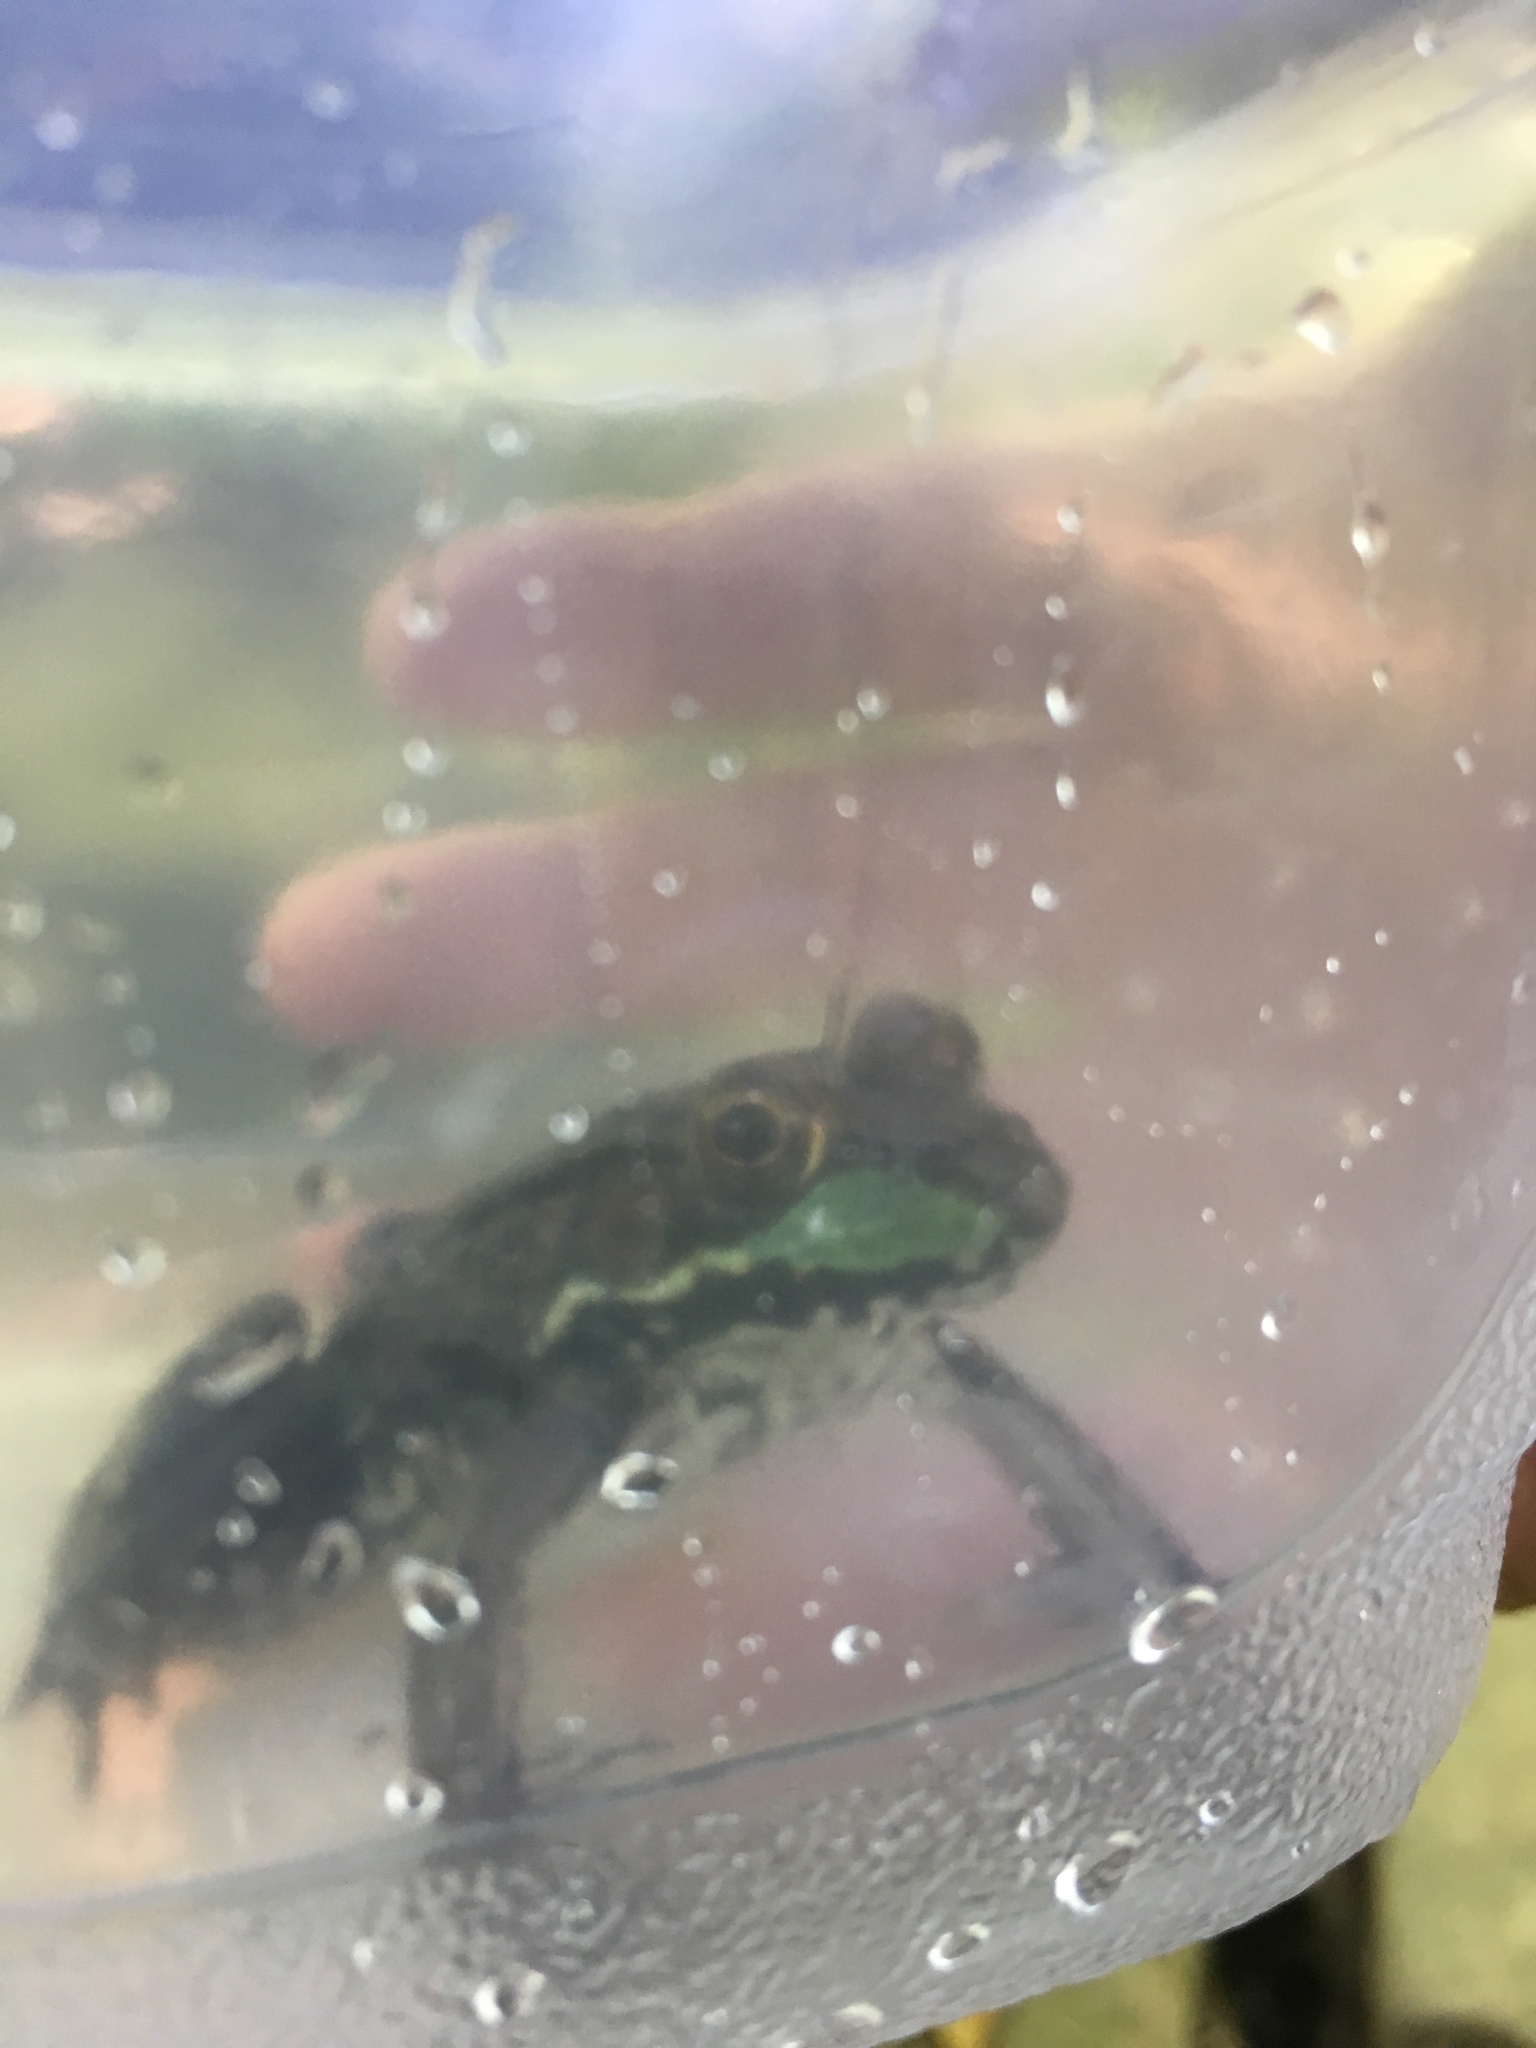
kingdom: Animalia
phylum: Chordata
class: Amphibia
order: Anura
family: Ranidae
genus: Lithobates
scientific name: Lithobates clamitans
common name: Green frog
